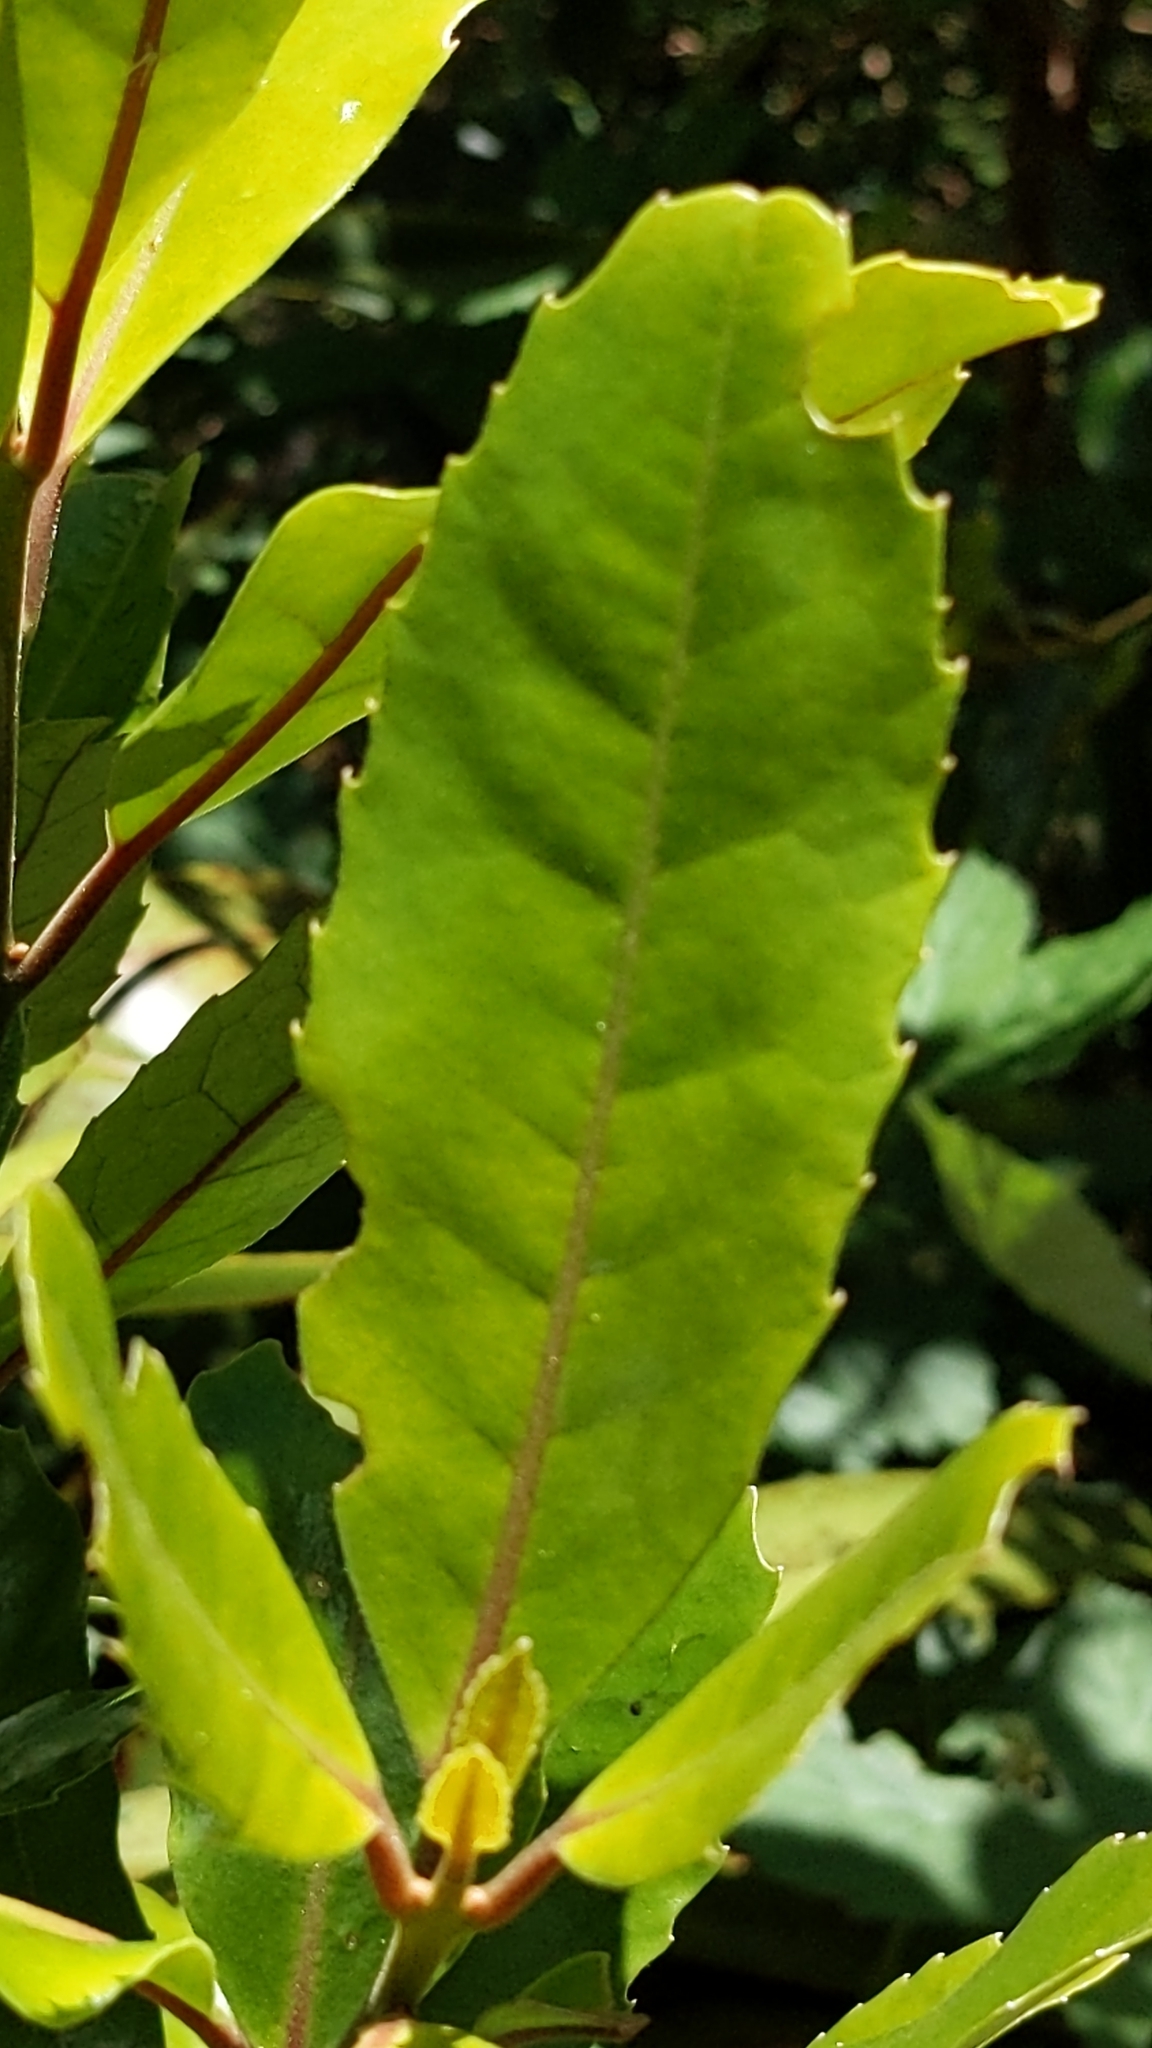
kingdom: Plantae
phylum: Tracheophyta
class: Magnoliopsida
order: Laurales
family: Monimiaceae
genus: Hedycarya
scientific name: Hedycarya arborea
